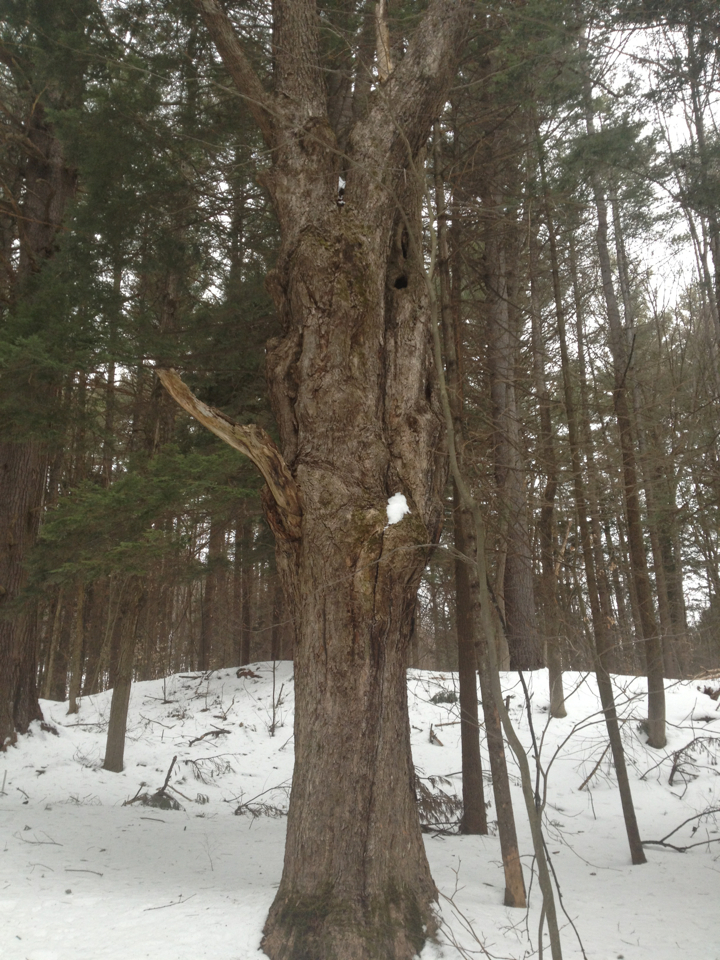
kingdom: Plantae
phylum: Tracheophyta
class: Magnoliopsida
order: Sapindales
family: Sapindaceae
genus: Acer
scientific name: Acer saccharum
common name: Sugar maple
